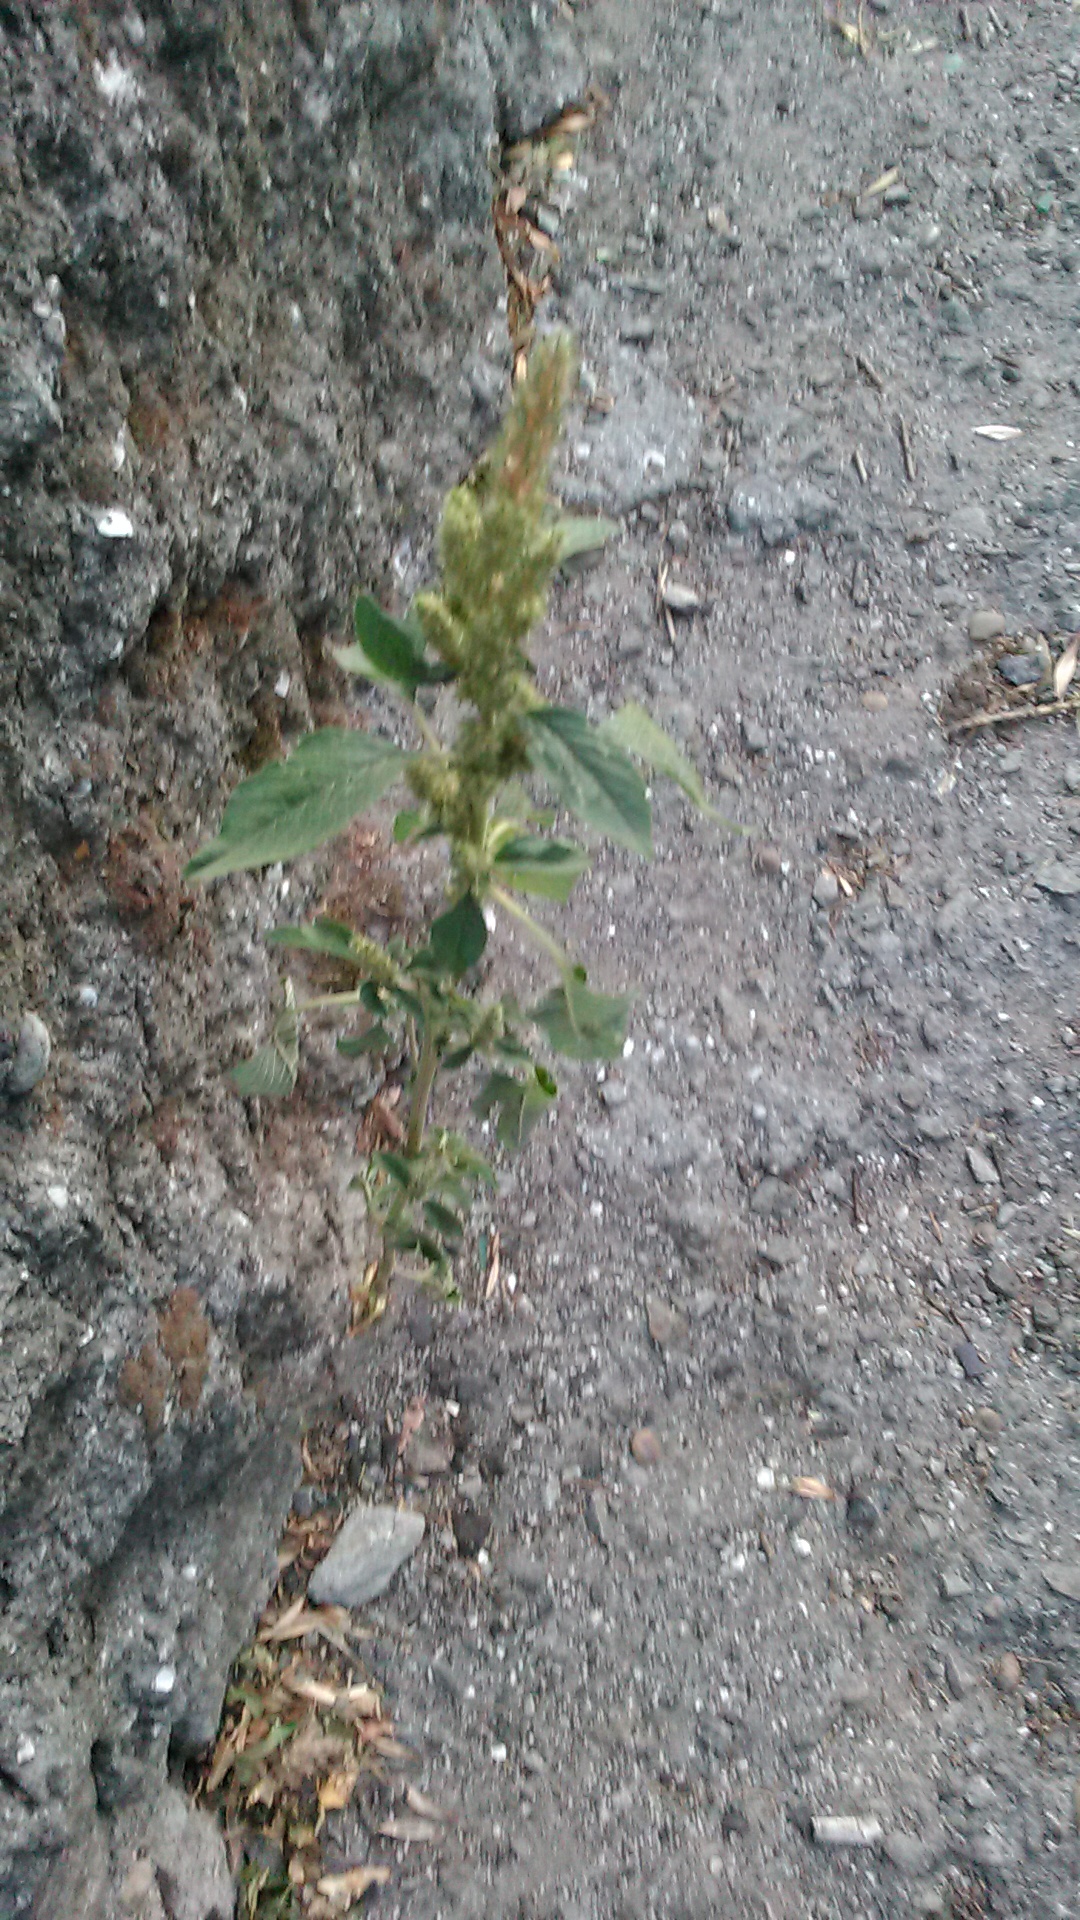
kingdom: Plantae
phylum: Tracheophyta
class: Magnoliopsida
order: Caryophyllales
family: Amaranthaceae
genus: Amaranthus
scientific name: Amaranthus retroflexus
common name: Redroot amaranth
